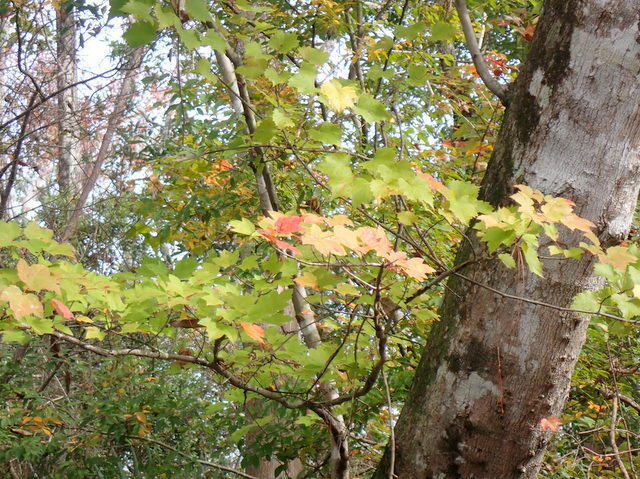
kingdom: Plantae
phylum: Tracheophyta
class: Magnoliopsida
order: Sapindales
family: Sapindaceae
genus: Acer
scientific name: Acer rubrum
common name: Red maple
